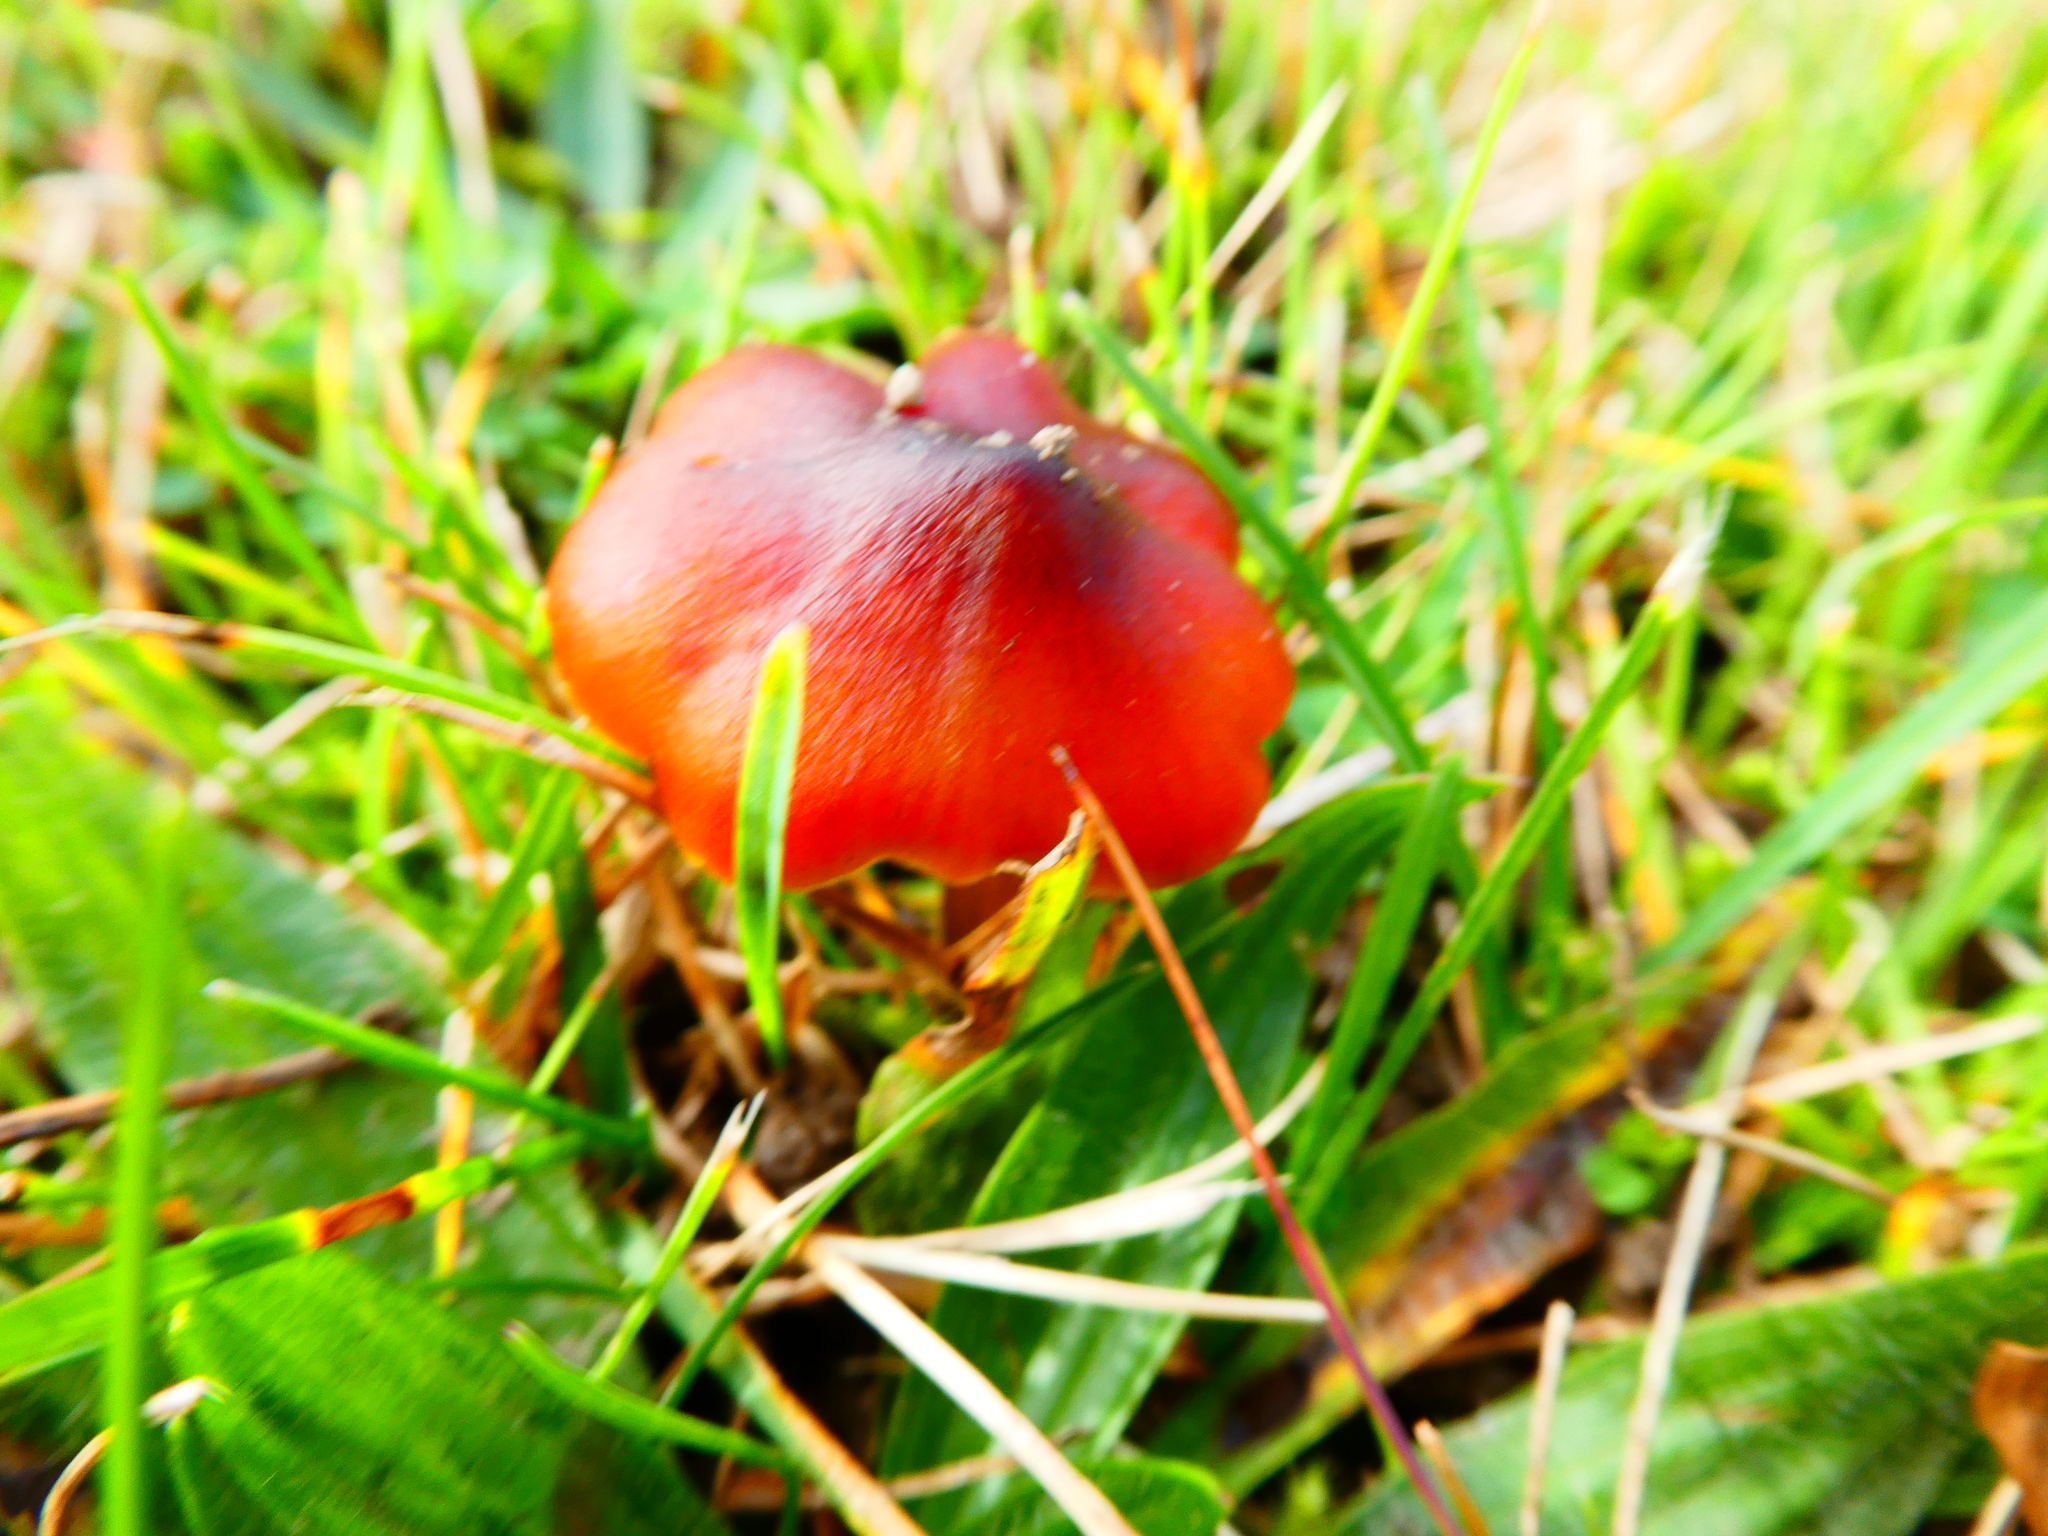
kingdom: Fungi
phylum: Basidiomycota
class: Agaricomycetes
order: Agaricales
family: Hygrophoraceae
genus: Hygrocybe
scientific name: Hygrocybe conica
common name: Blackening wax-cap
